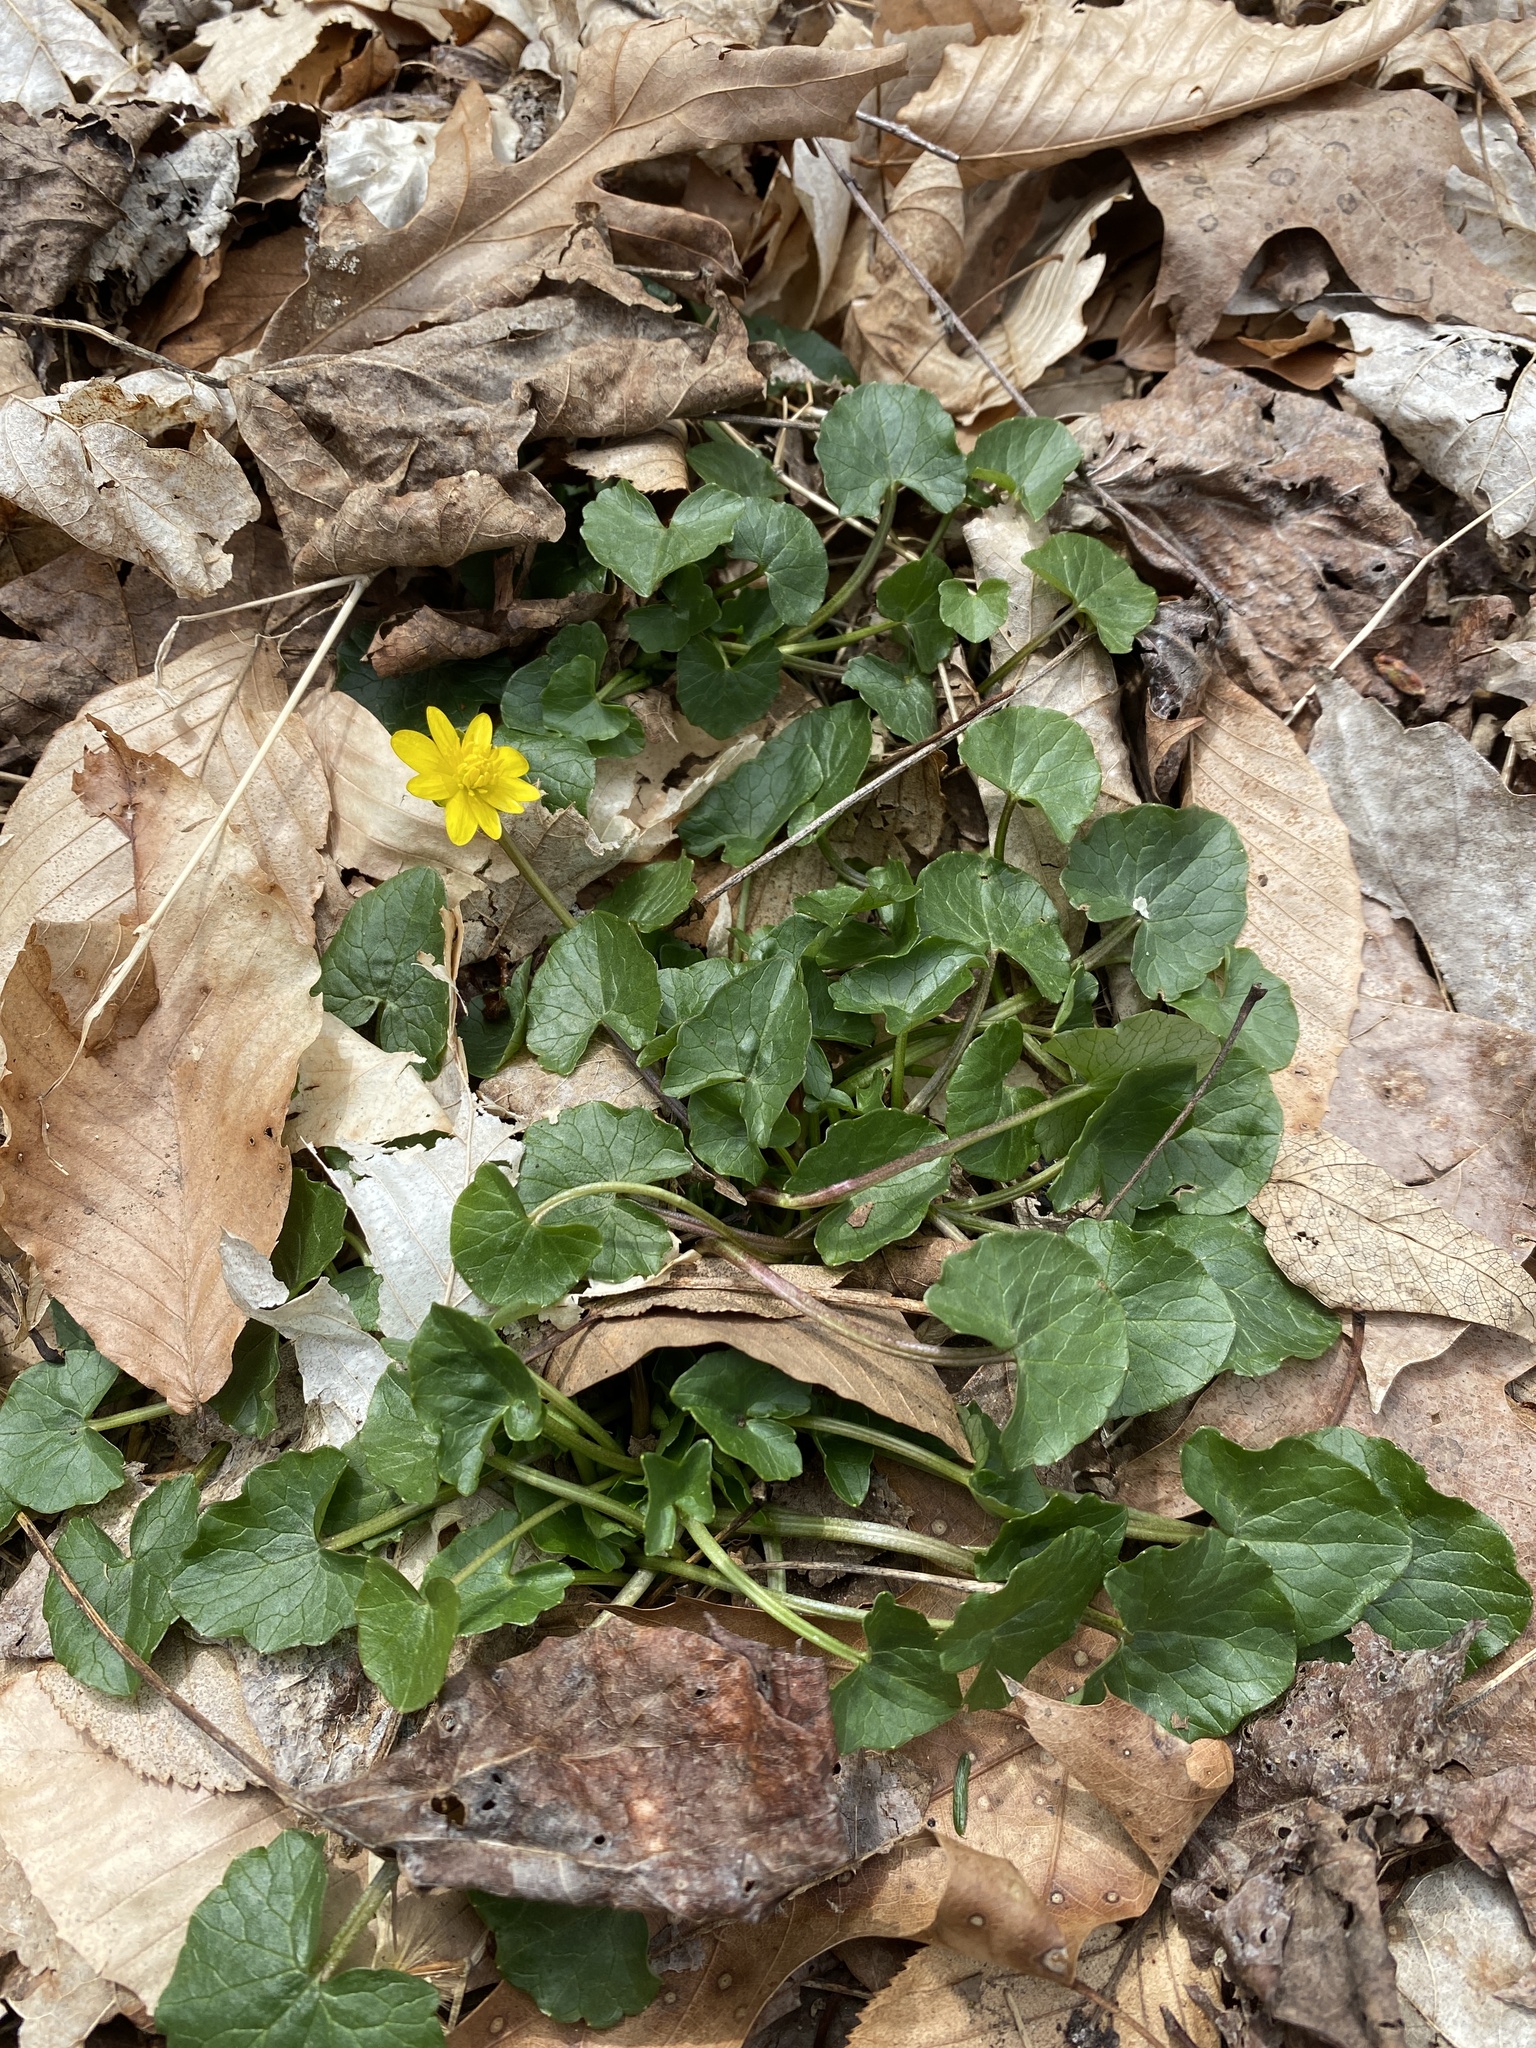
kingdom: Plantae
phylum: Tracheophyta
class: Magnoliopsida
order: Ranunculales
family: Ranunculaceae
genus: Ficaria
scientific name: Ficaria verna
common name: Lesser celandine
